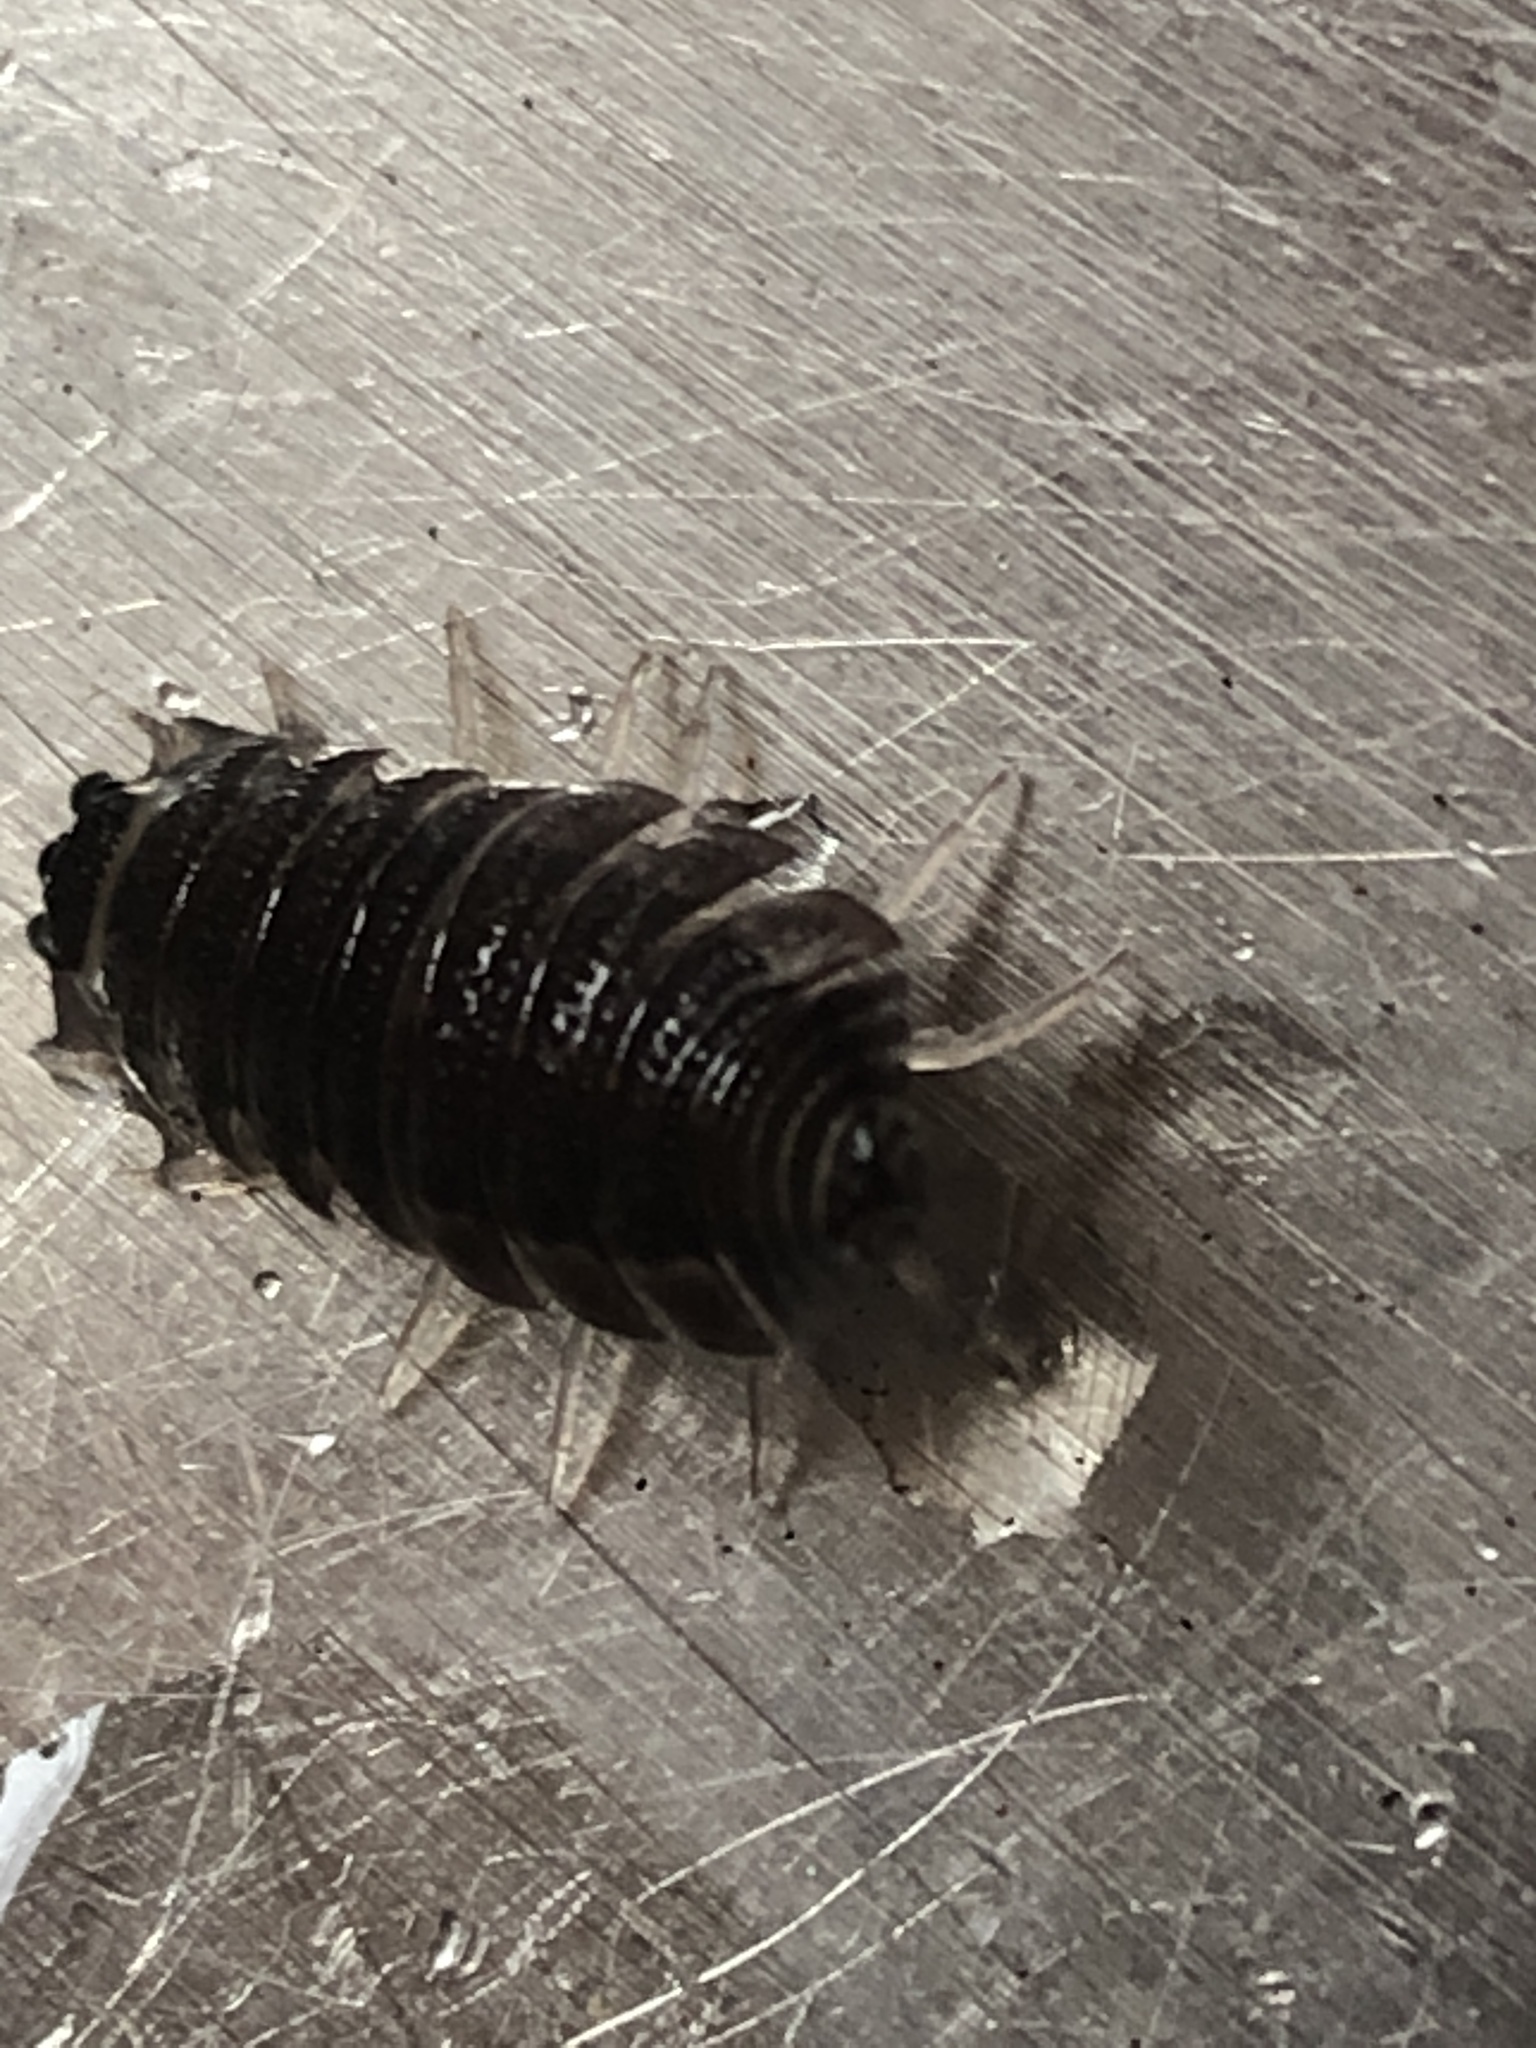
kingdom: Animalia
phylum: Arthropoda
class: Malacostraca
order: Isopoda
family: Porcellionidae
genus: Porcellio
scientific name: Porcellio scaber
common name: Common rough woodlouse
